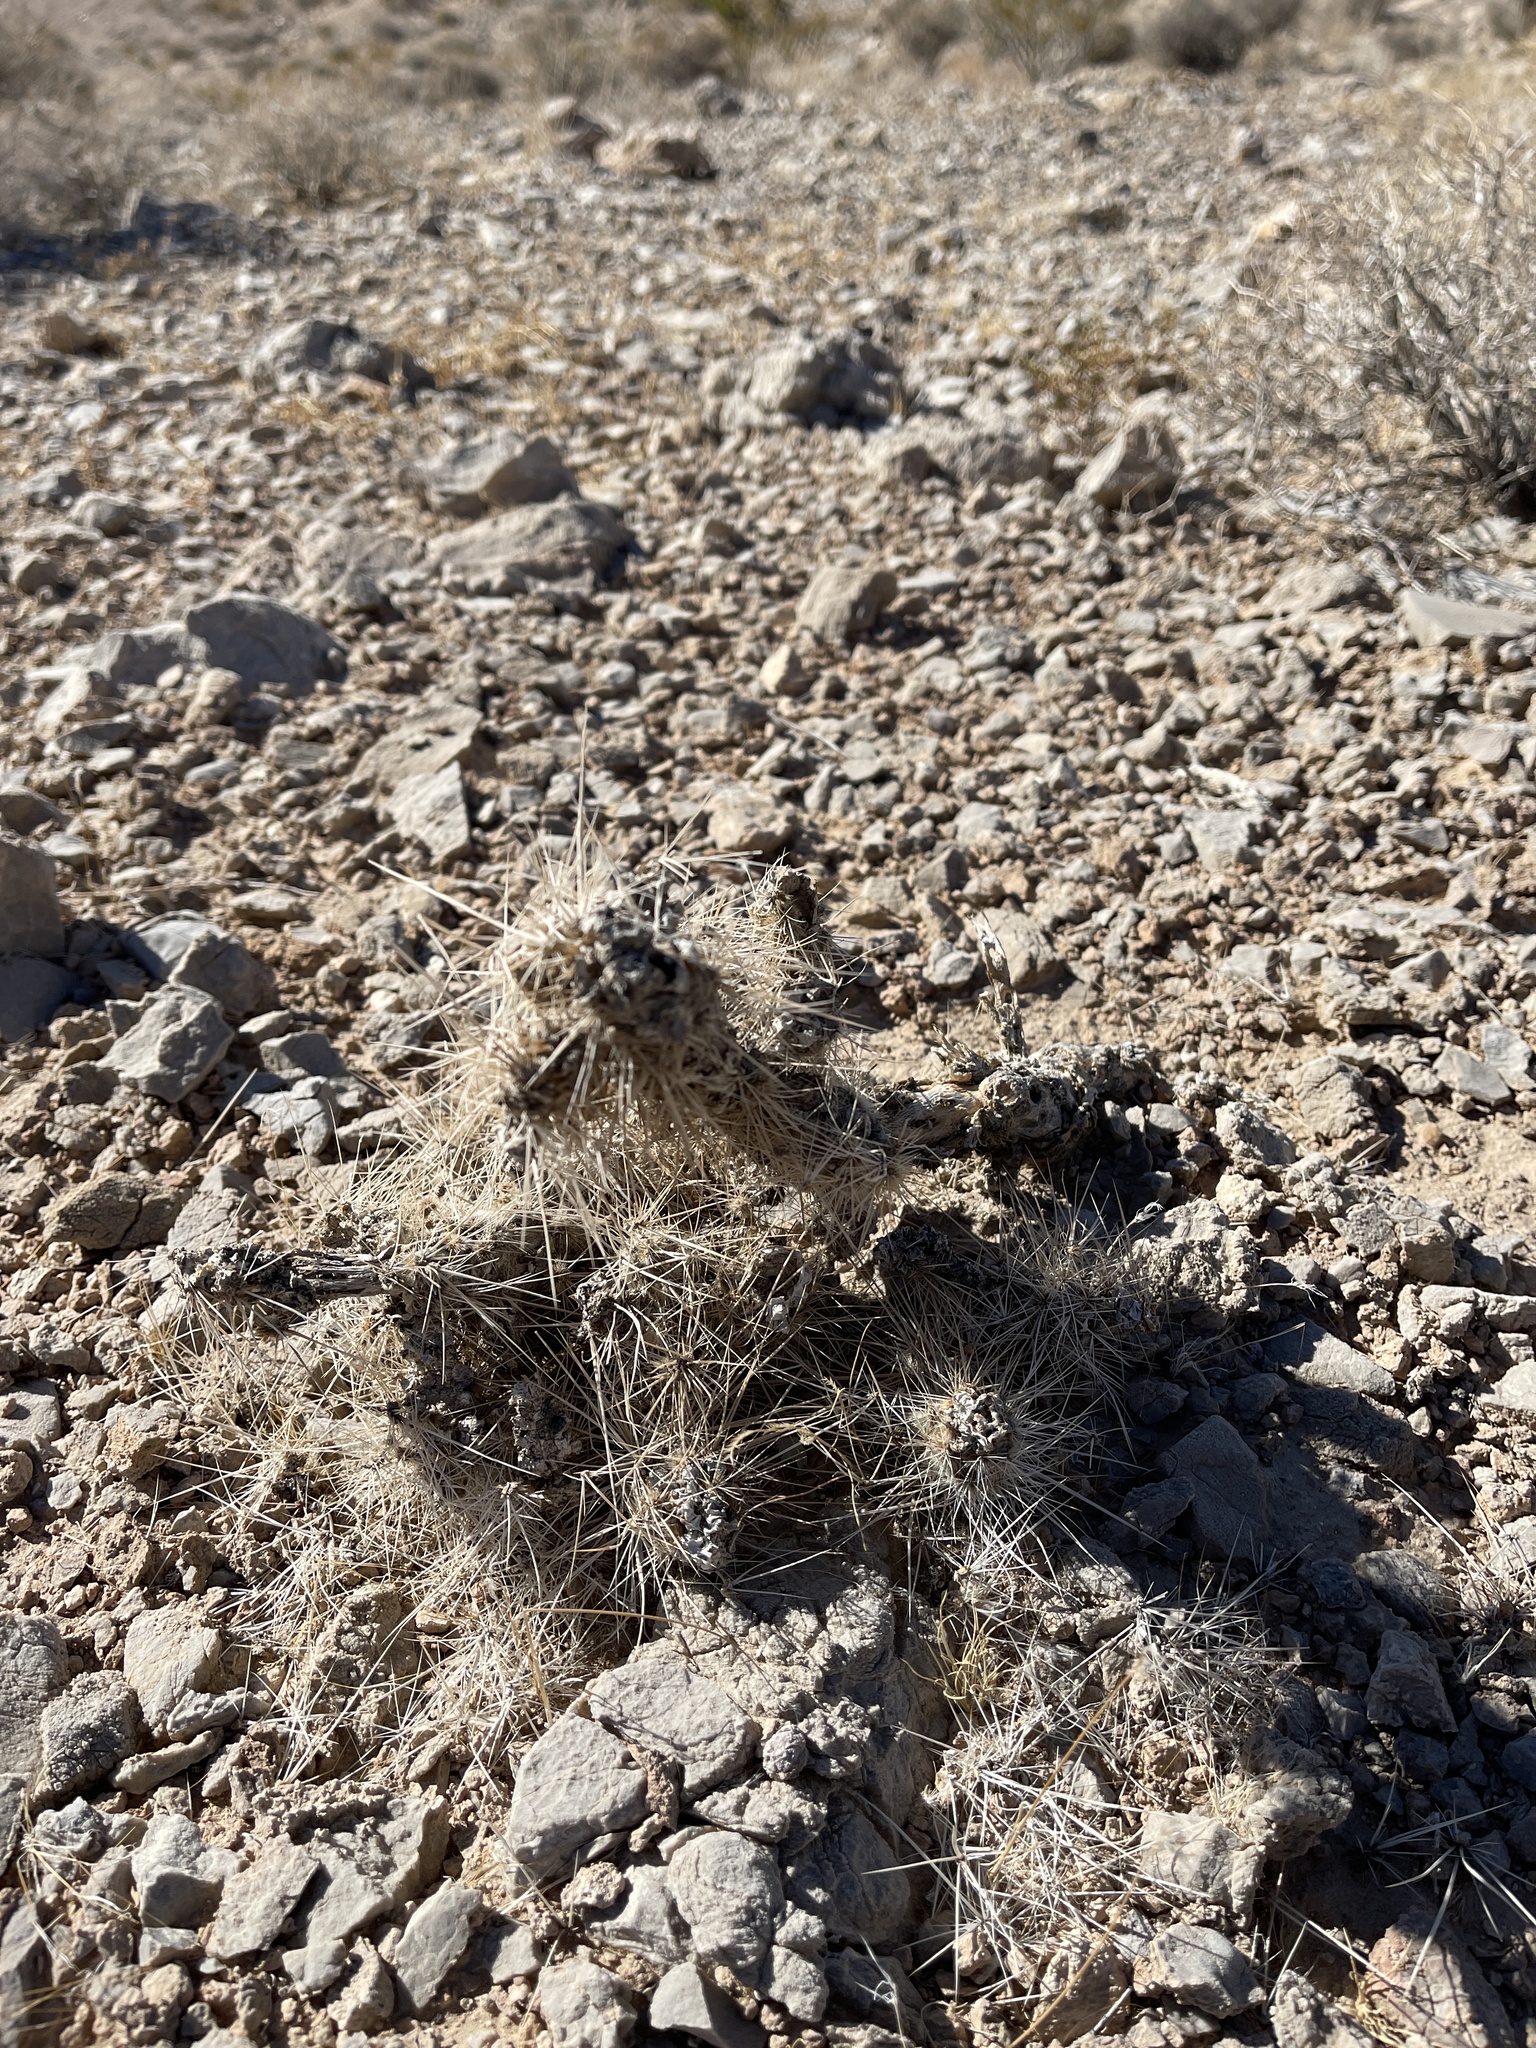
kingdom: Plantae
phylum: Tracheophyta
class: Magnoliopsida
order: Caryophyllales
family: Cactaceae
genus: Cylindropuntia
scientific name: Cylindropuntia echinocarpa
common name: Ground cholla
